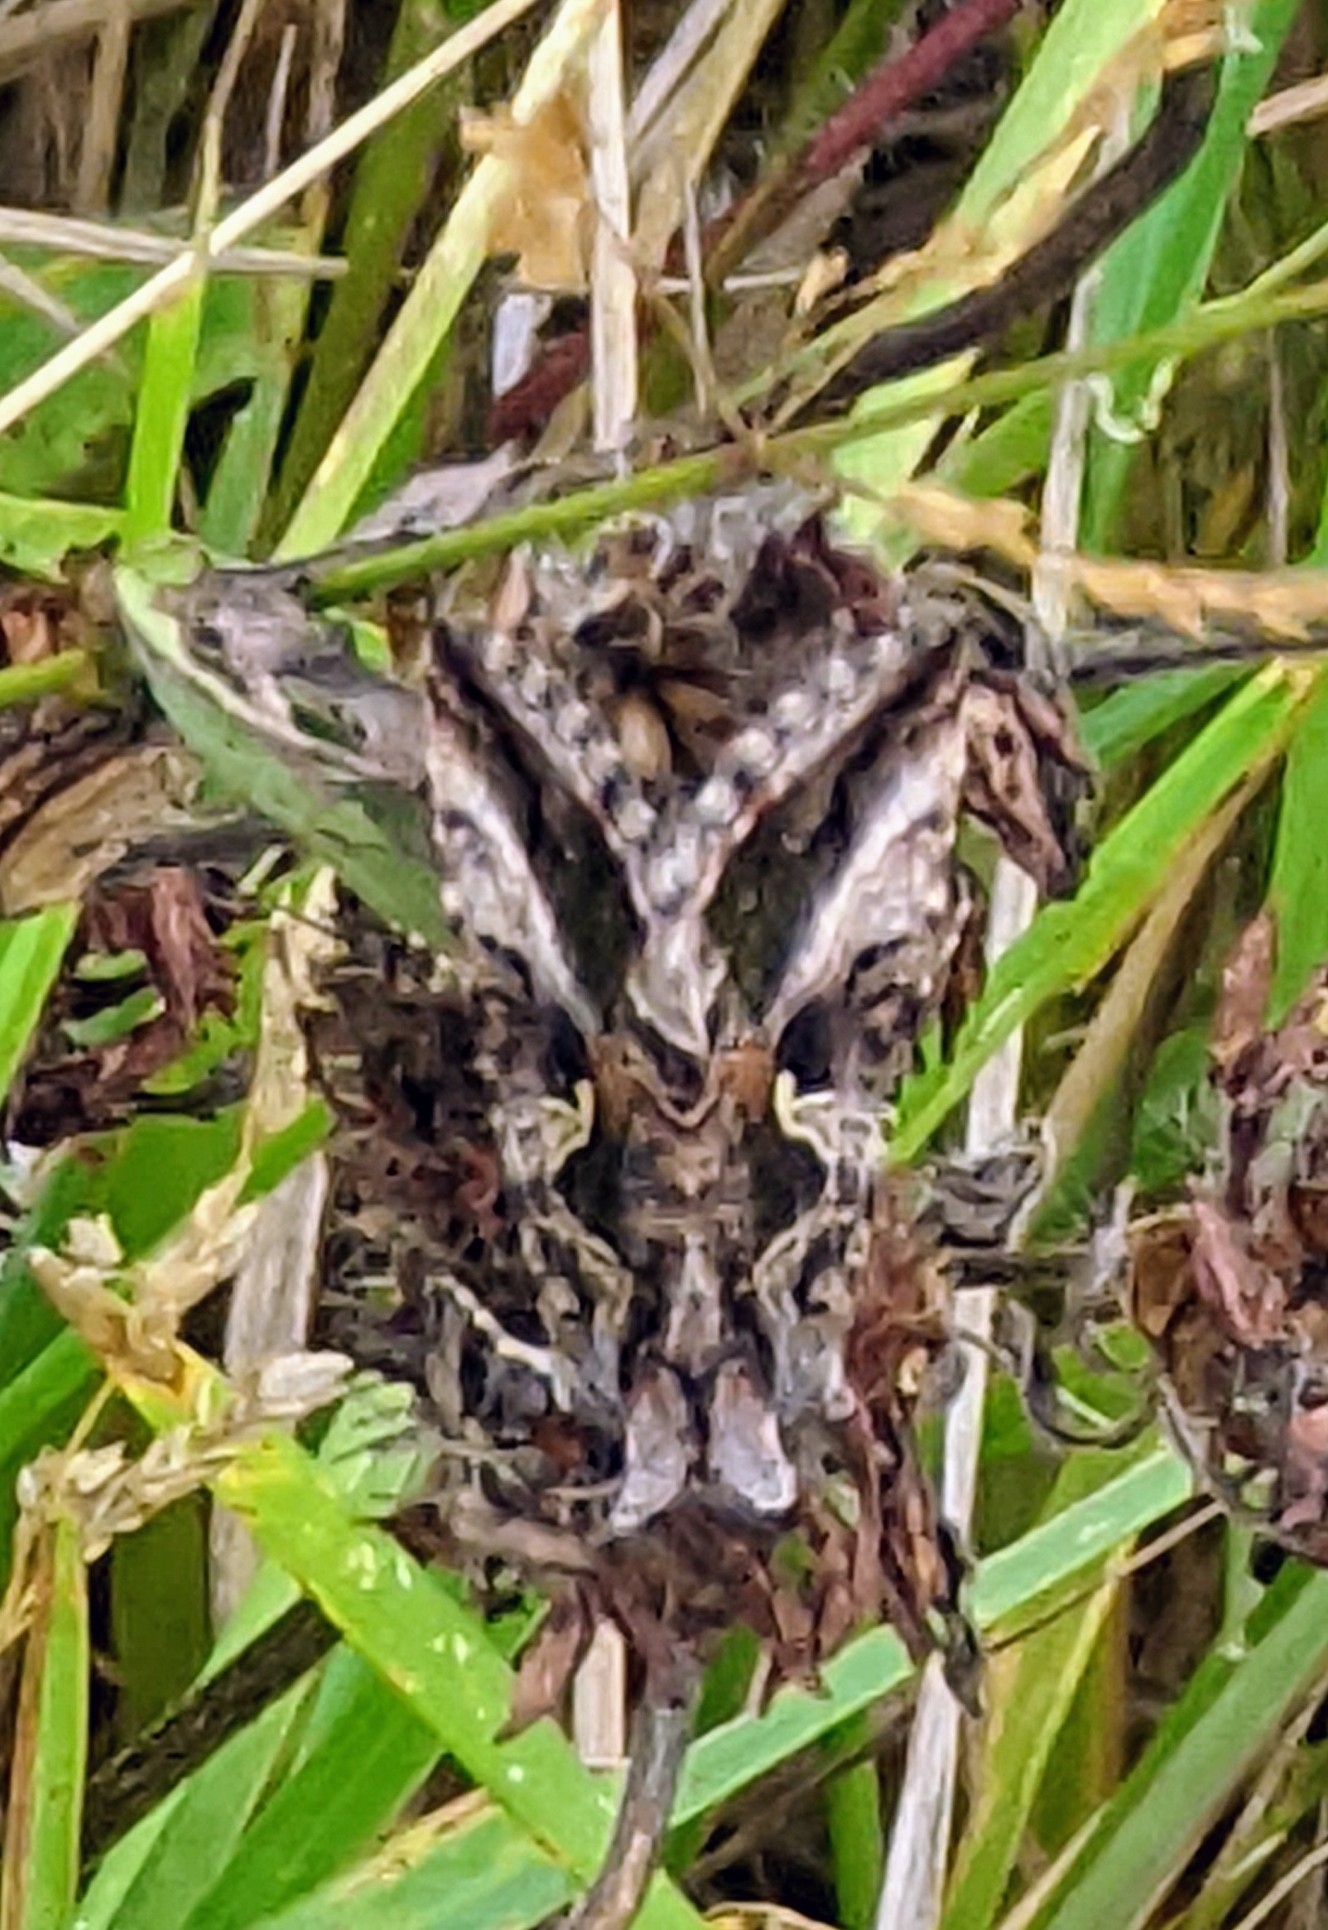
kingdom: Animalia
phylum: Arthropoda
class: Insecta
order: Lepidoptera
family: Noctuidae
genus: Autographa
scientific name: Autographa gamma
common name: Silver y
